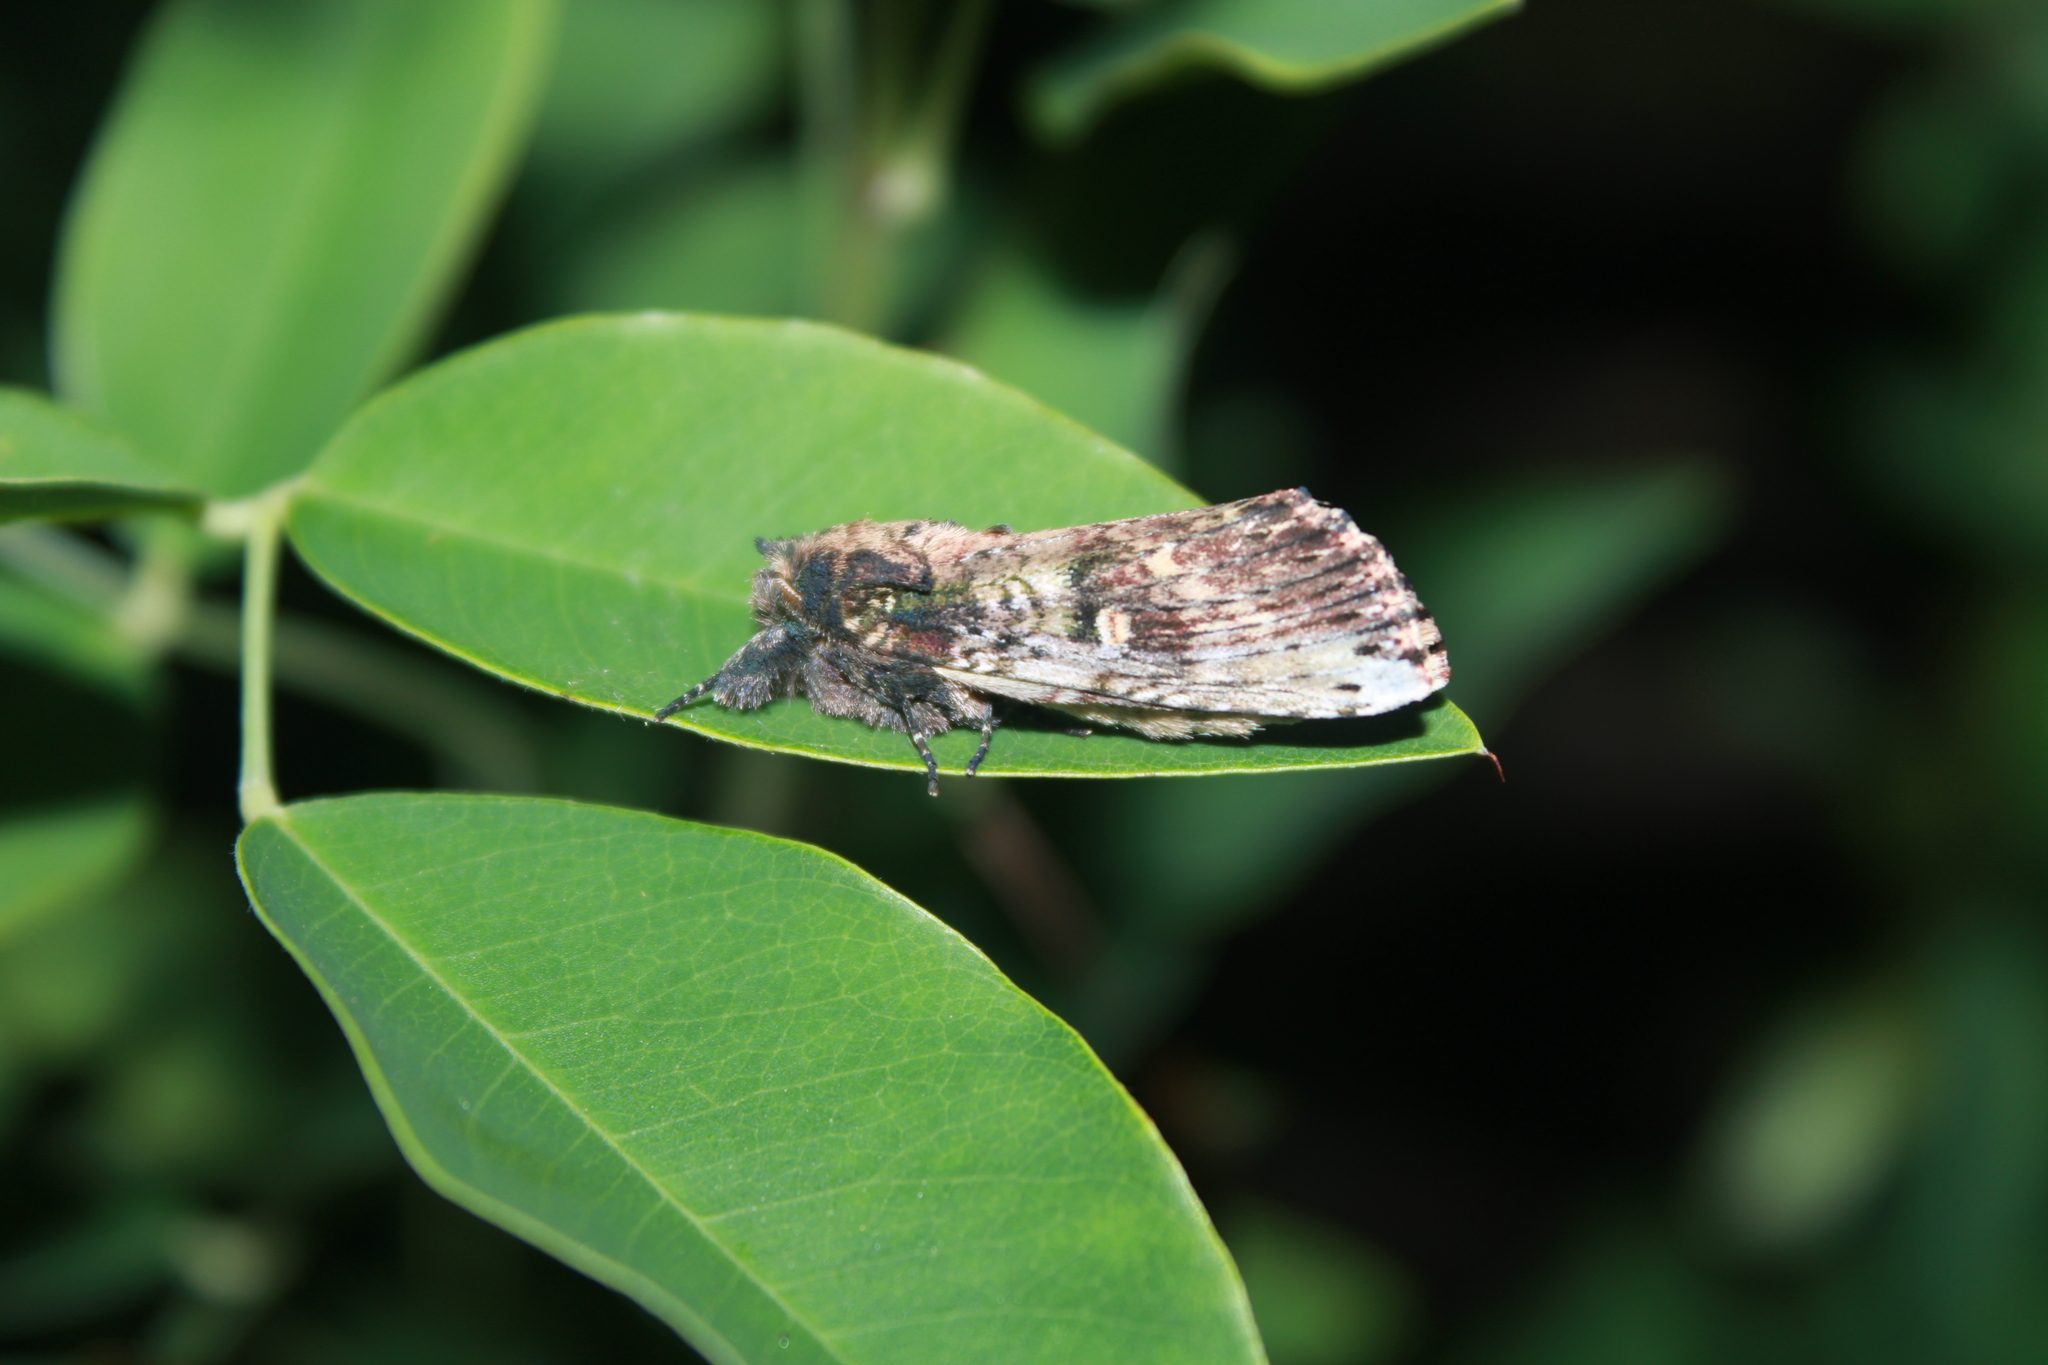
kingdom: Animalia
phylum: Arthropoda
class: Insecta
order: Lepidoptera
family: Notodontidae
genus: Schizura
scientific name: Schizura ipomaeae
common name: Morning-glory prominent
